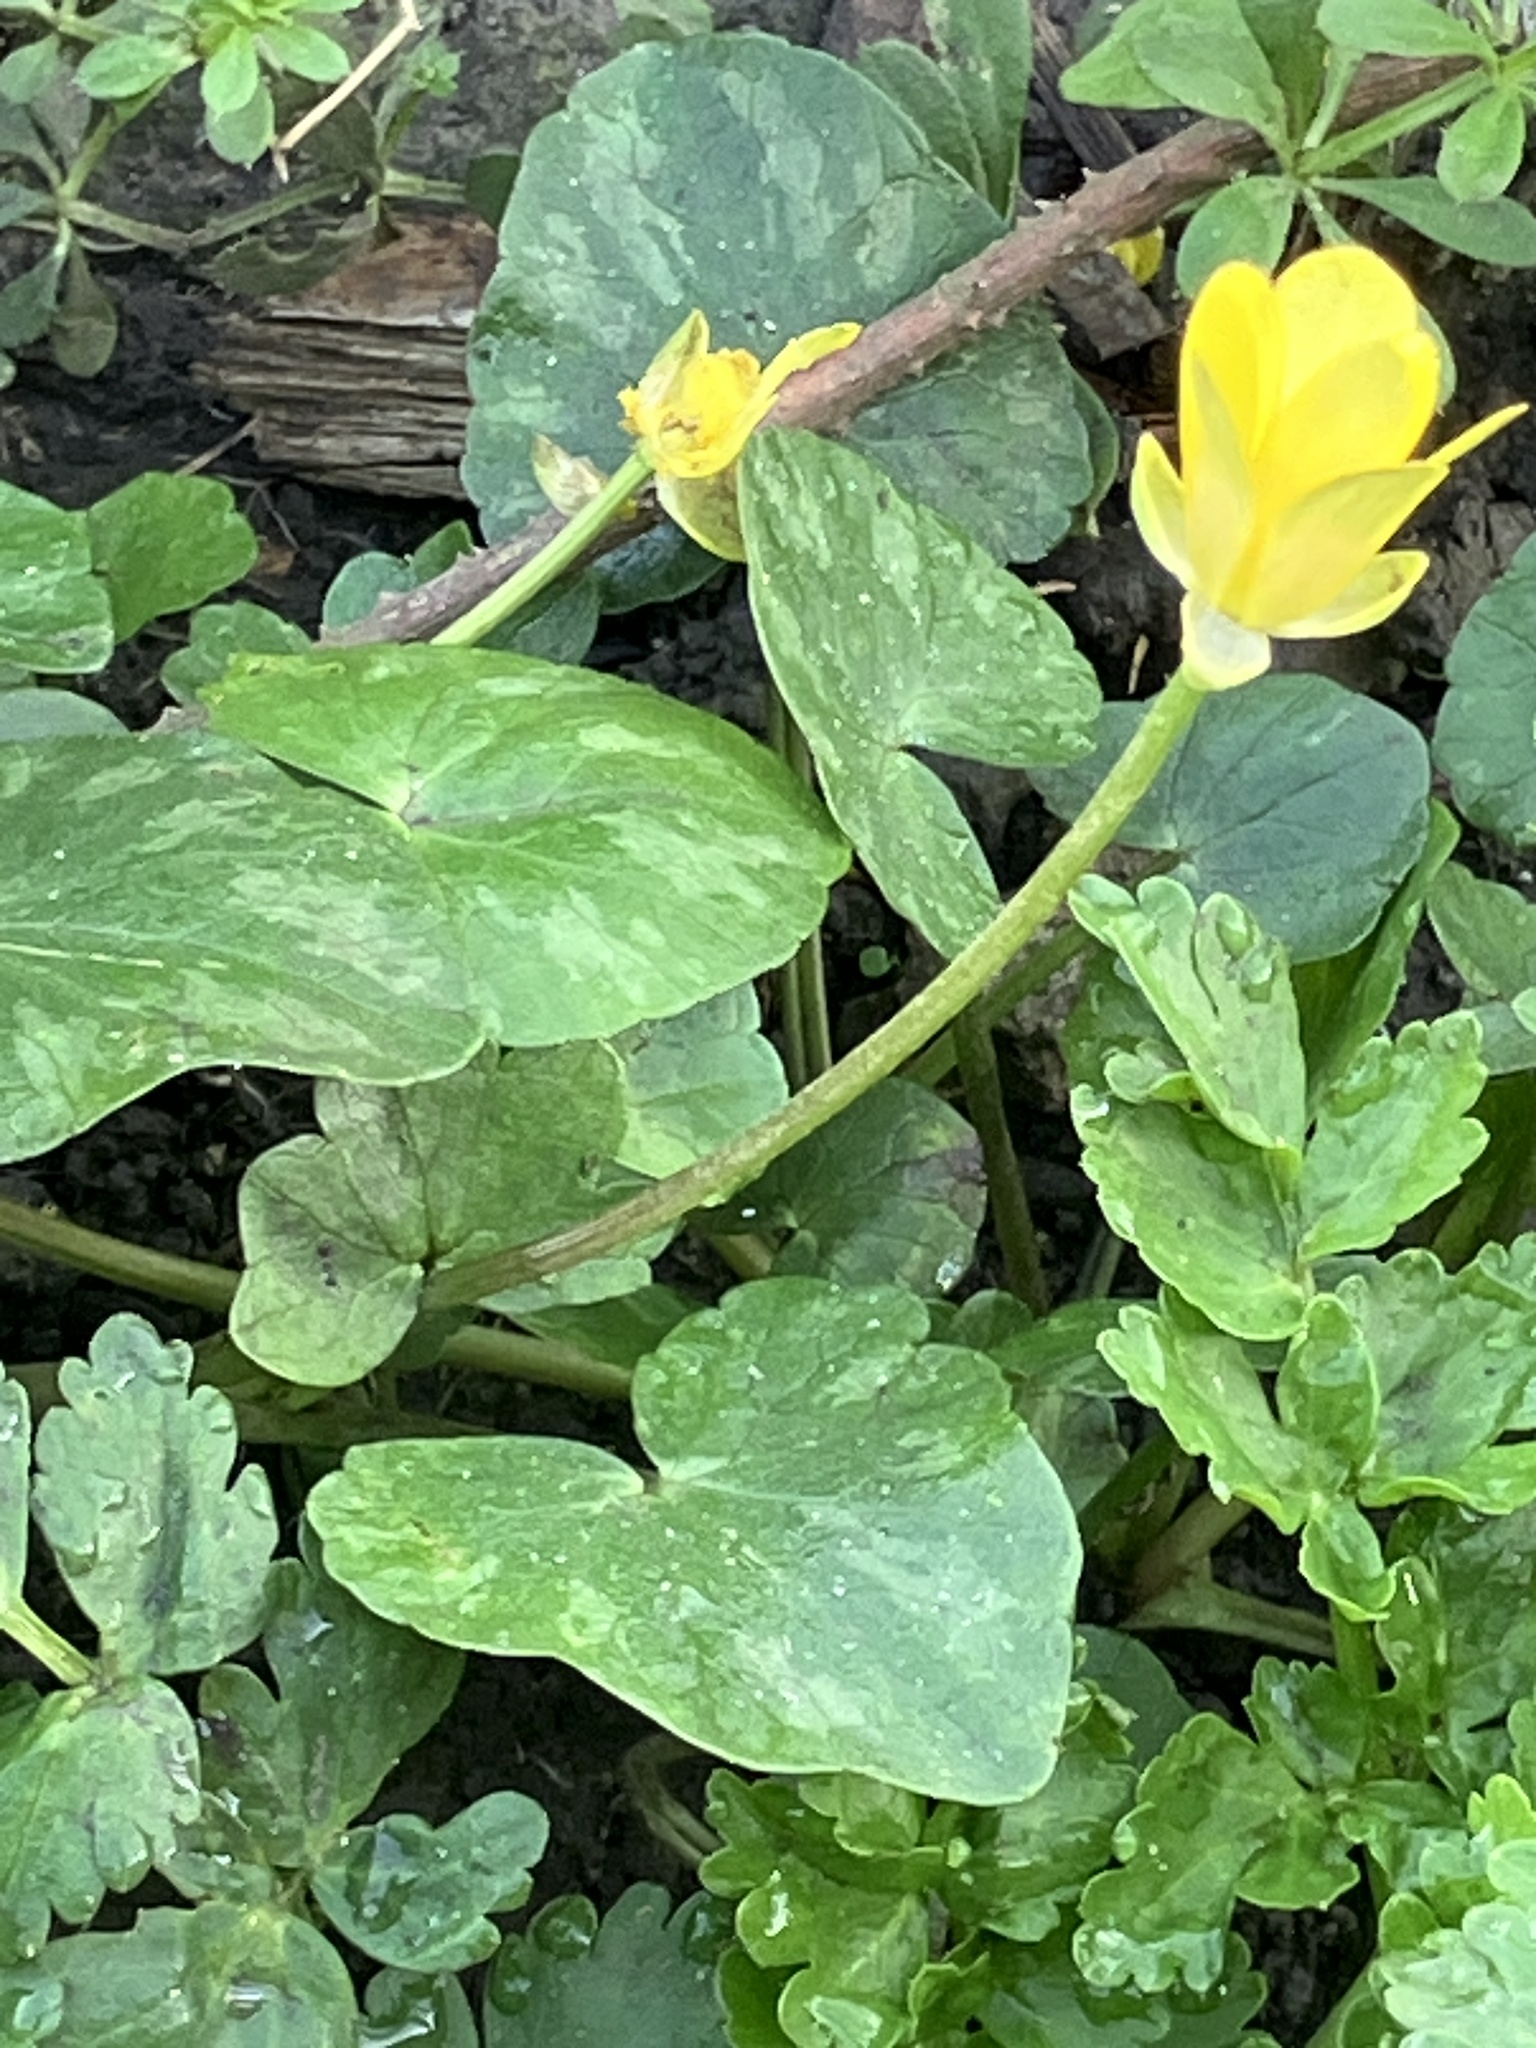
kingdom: Plantae
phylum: Tracheophyta
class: Magnoliopsida
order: Ranunculales
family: Ranunculaceae
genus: Ficaria
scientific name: Ficaria verna
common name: Lesser celandine
